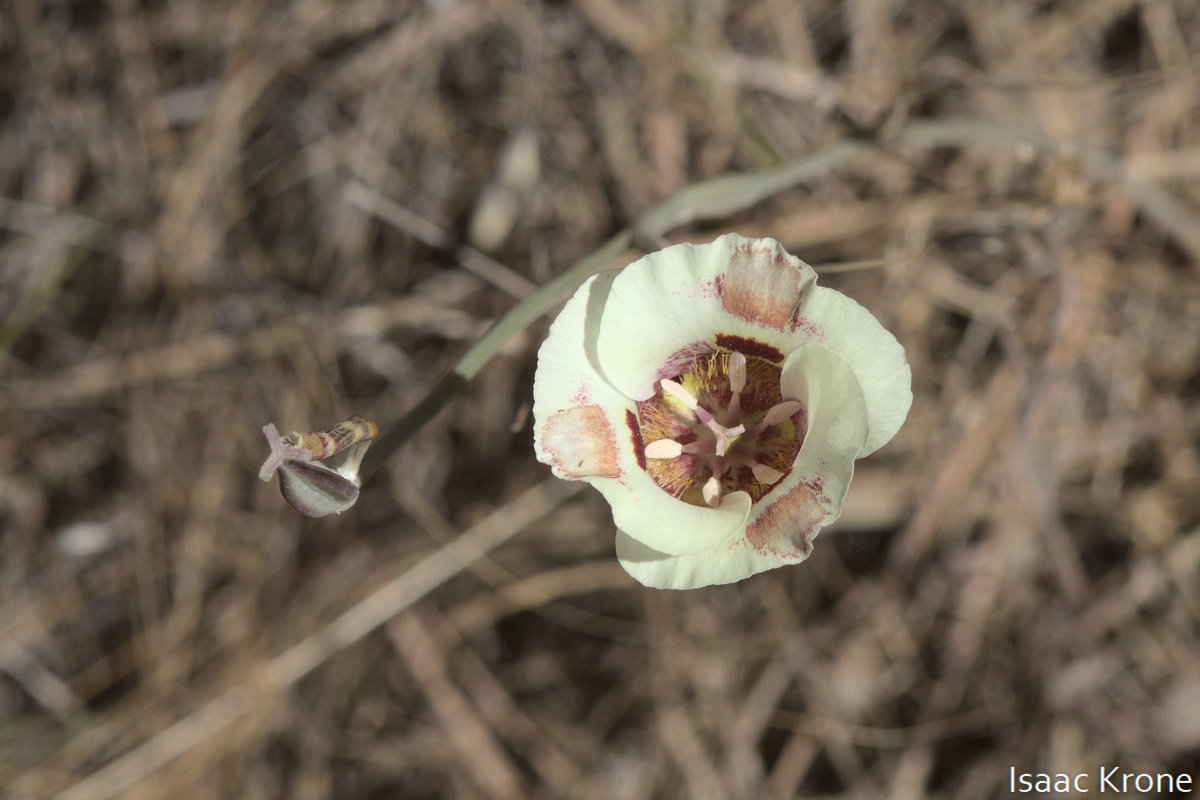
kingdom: Plantae
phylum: Tracheophyta
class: Liliopsida
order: Liliales
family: Liliaceae
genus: Calochortus
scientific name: Calochortus venustus
